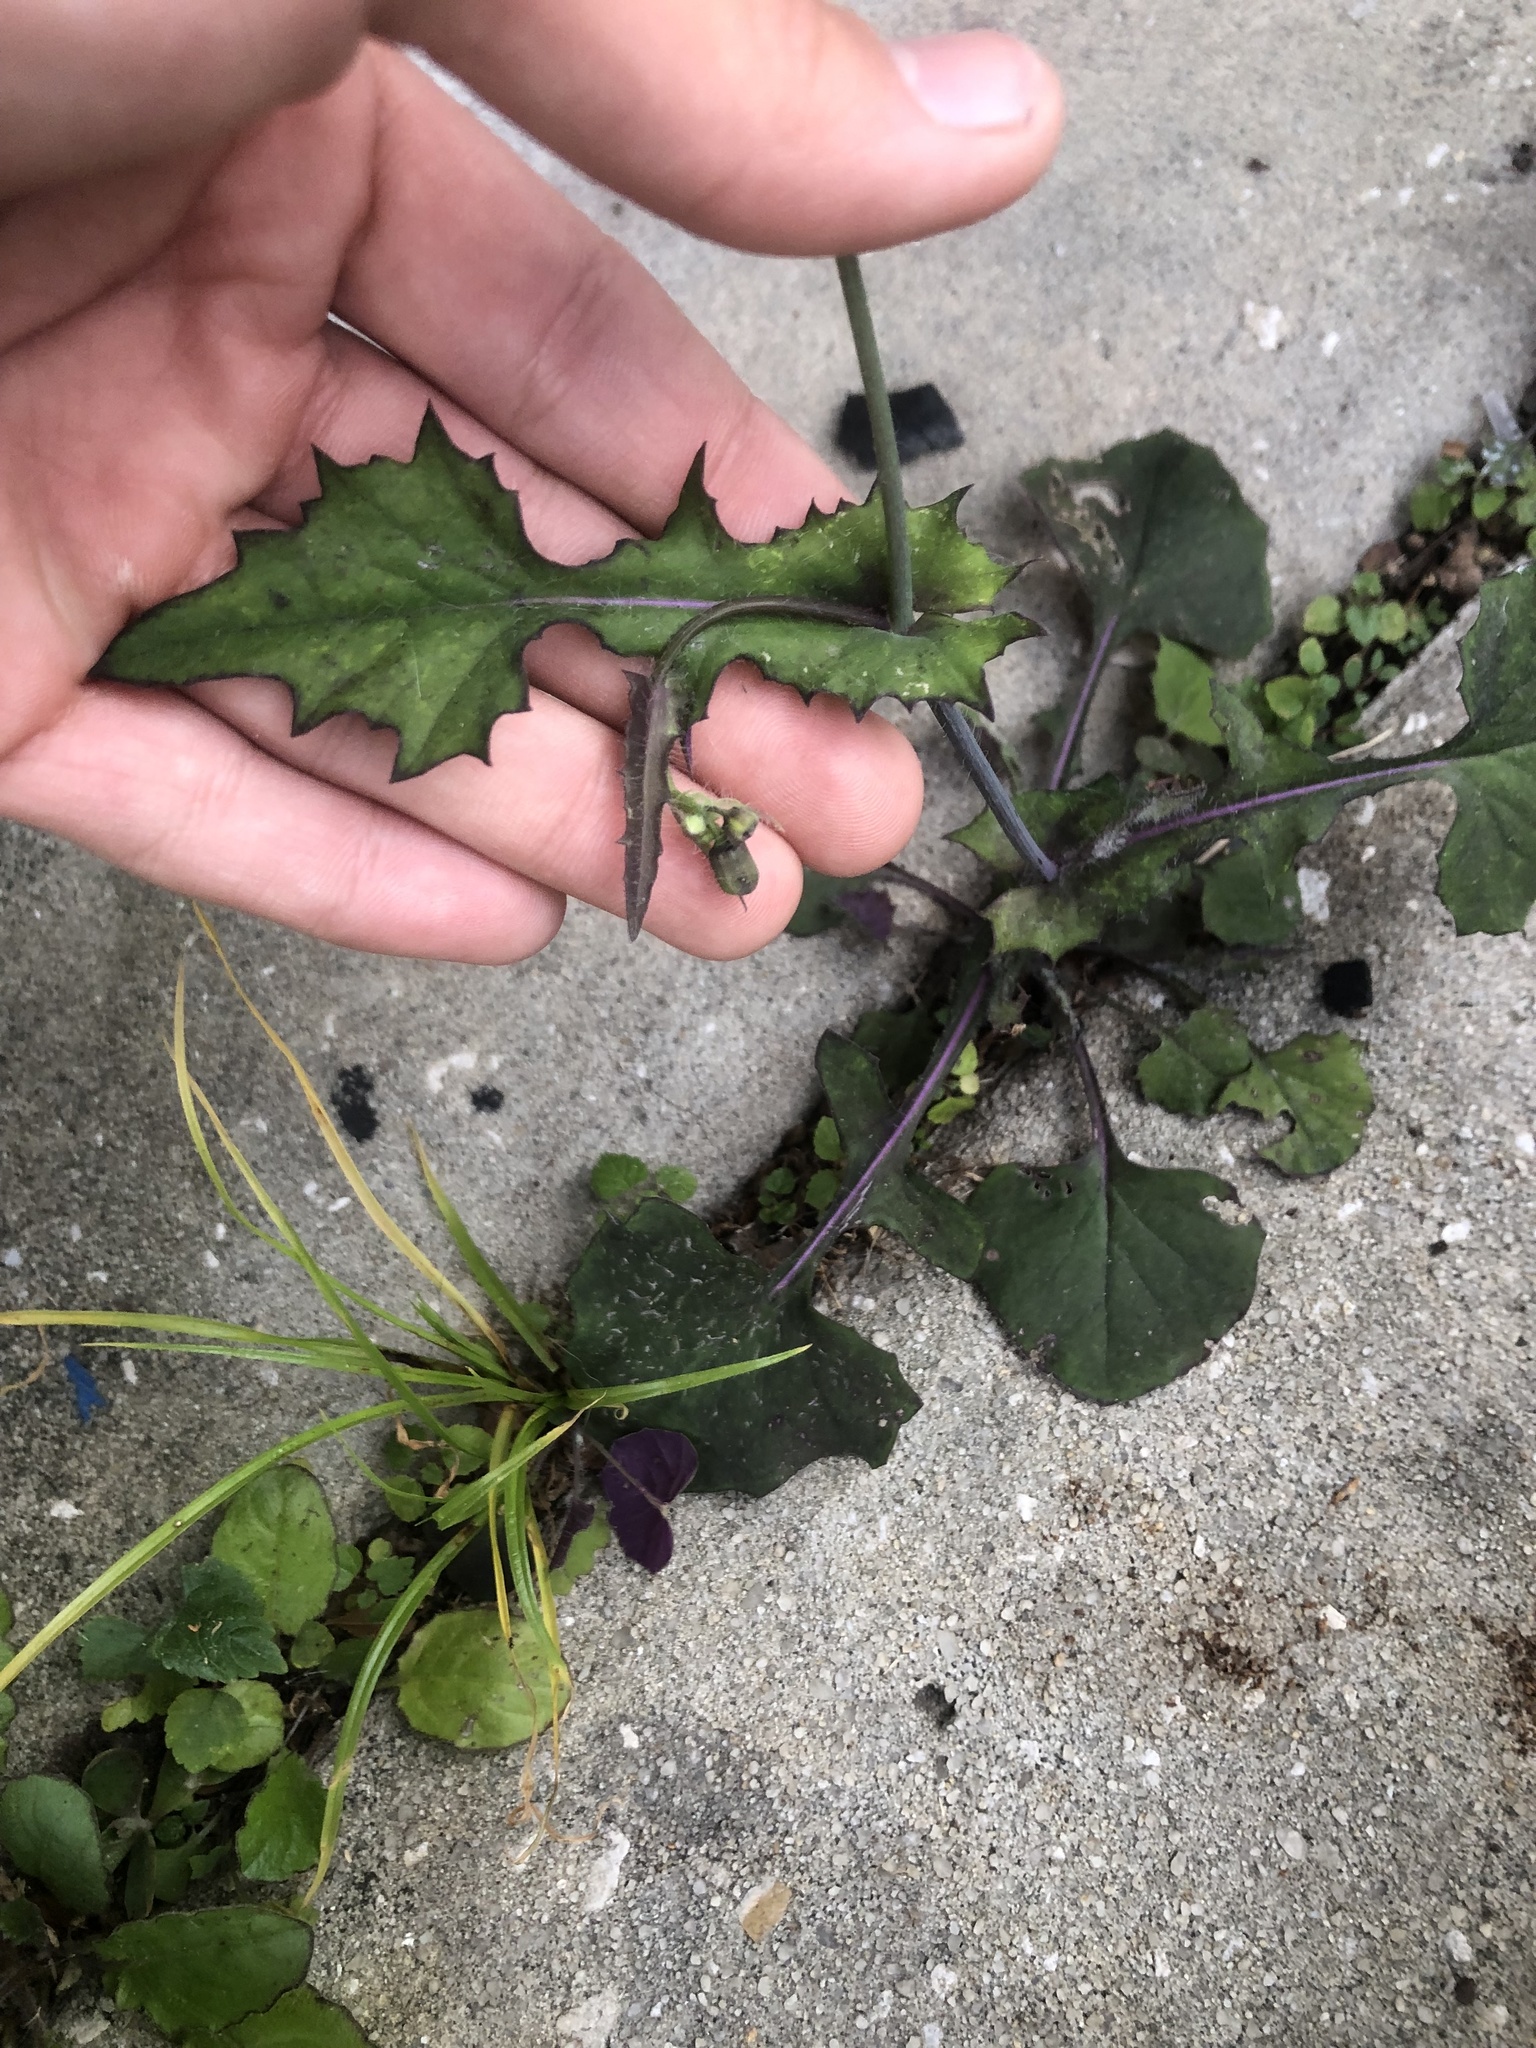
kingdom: Plantae
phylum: Tracheophyta
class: Magnoliopsida
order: Asterales
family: Asteraceae
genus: Emilia
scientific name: Emilia sonchifolia
